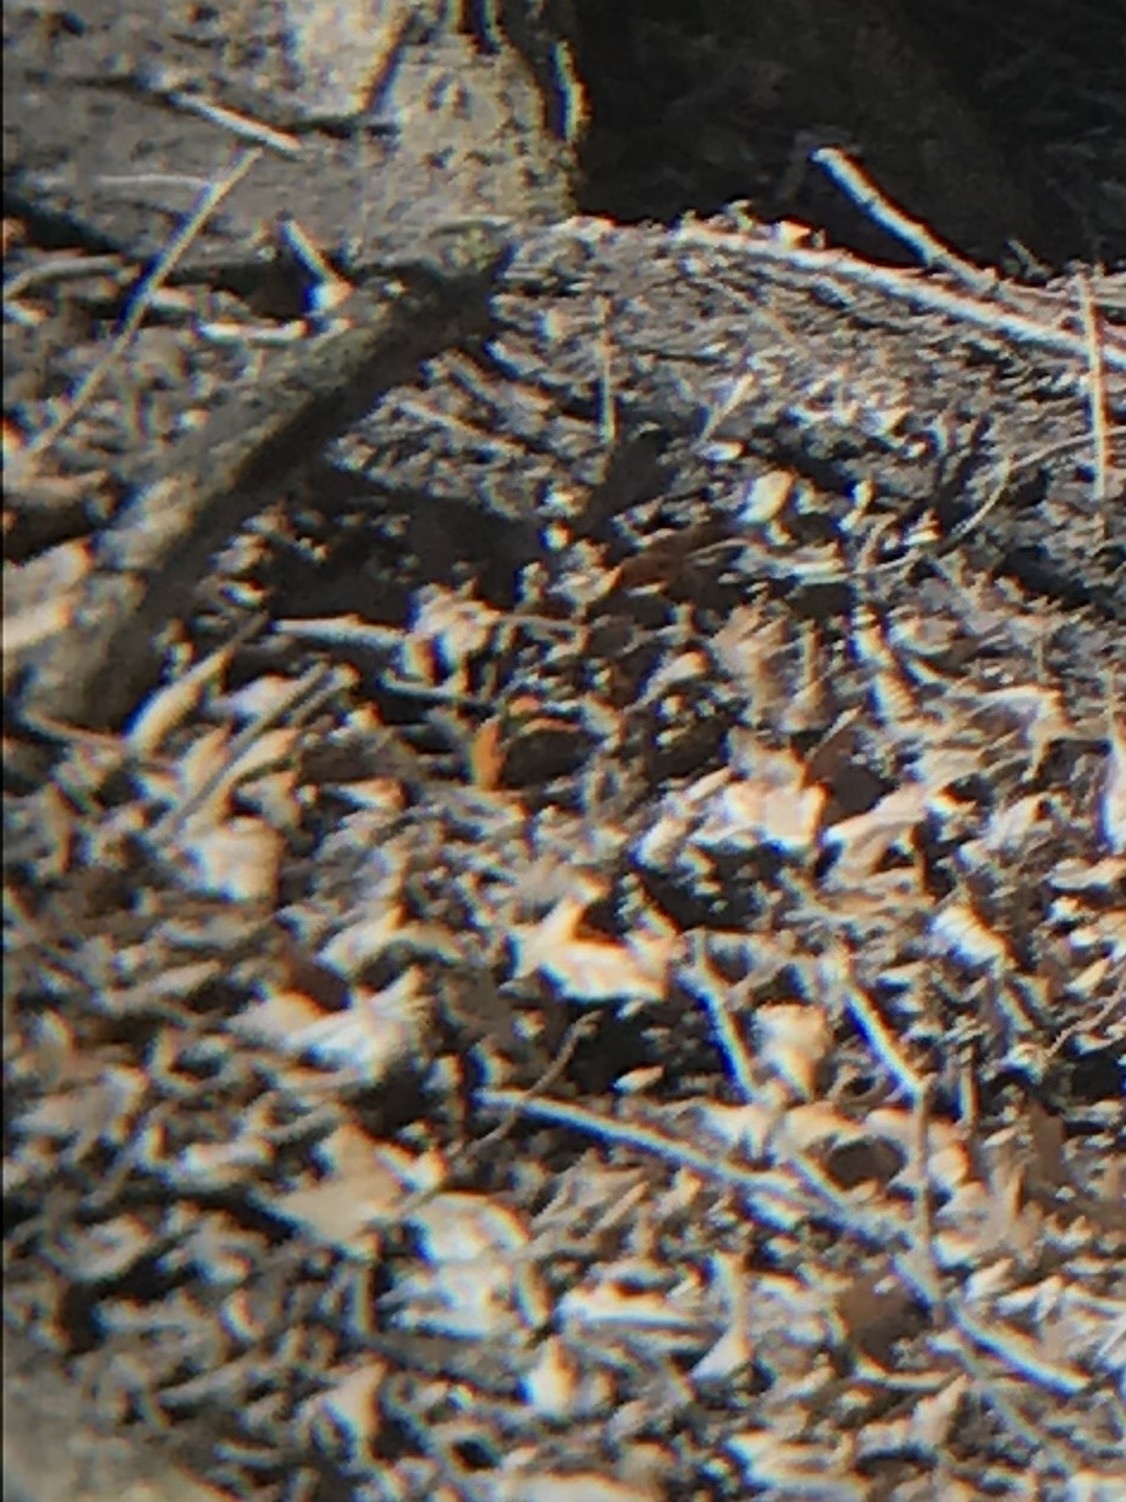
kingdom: Animalia
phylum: Arthropoda
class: Insecta
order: Lepidoptera
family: Nymphalidae
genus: Vanessa
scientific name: Vanessa atalanta
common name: Red admiral
